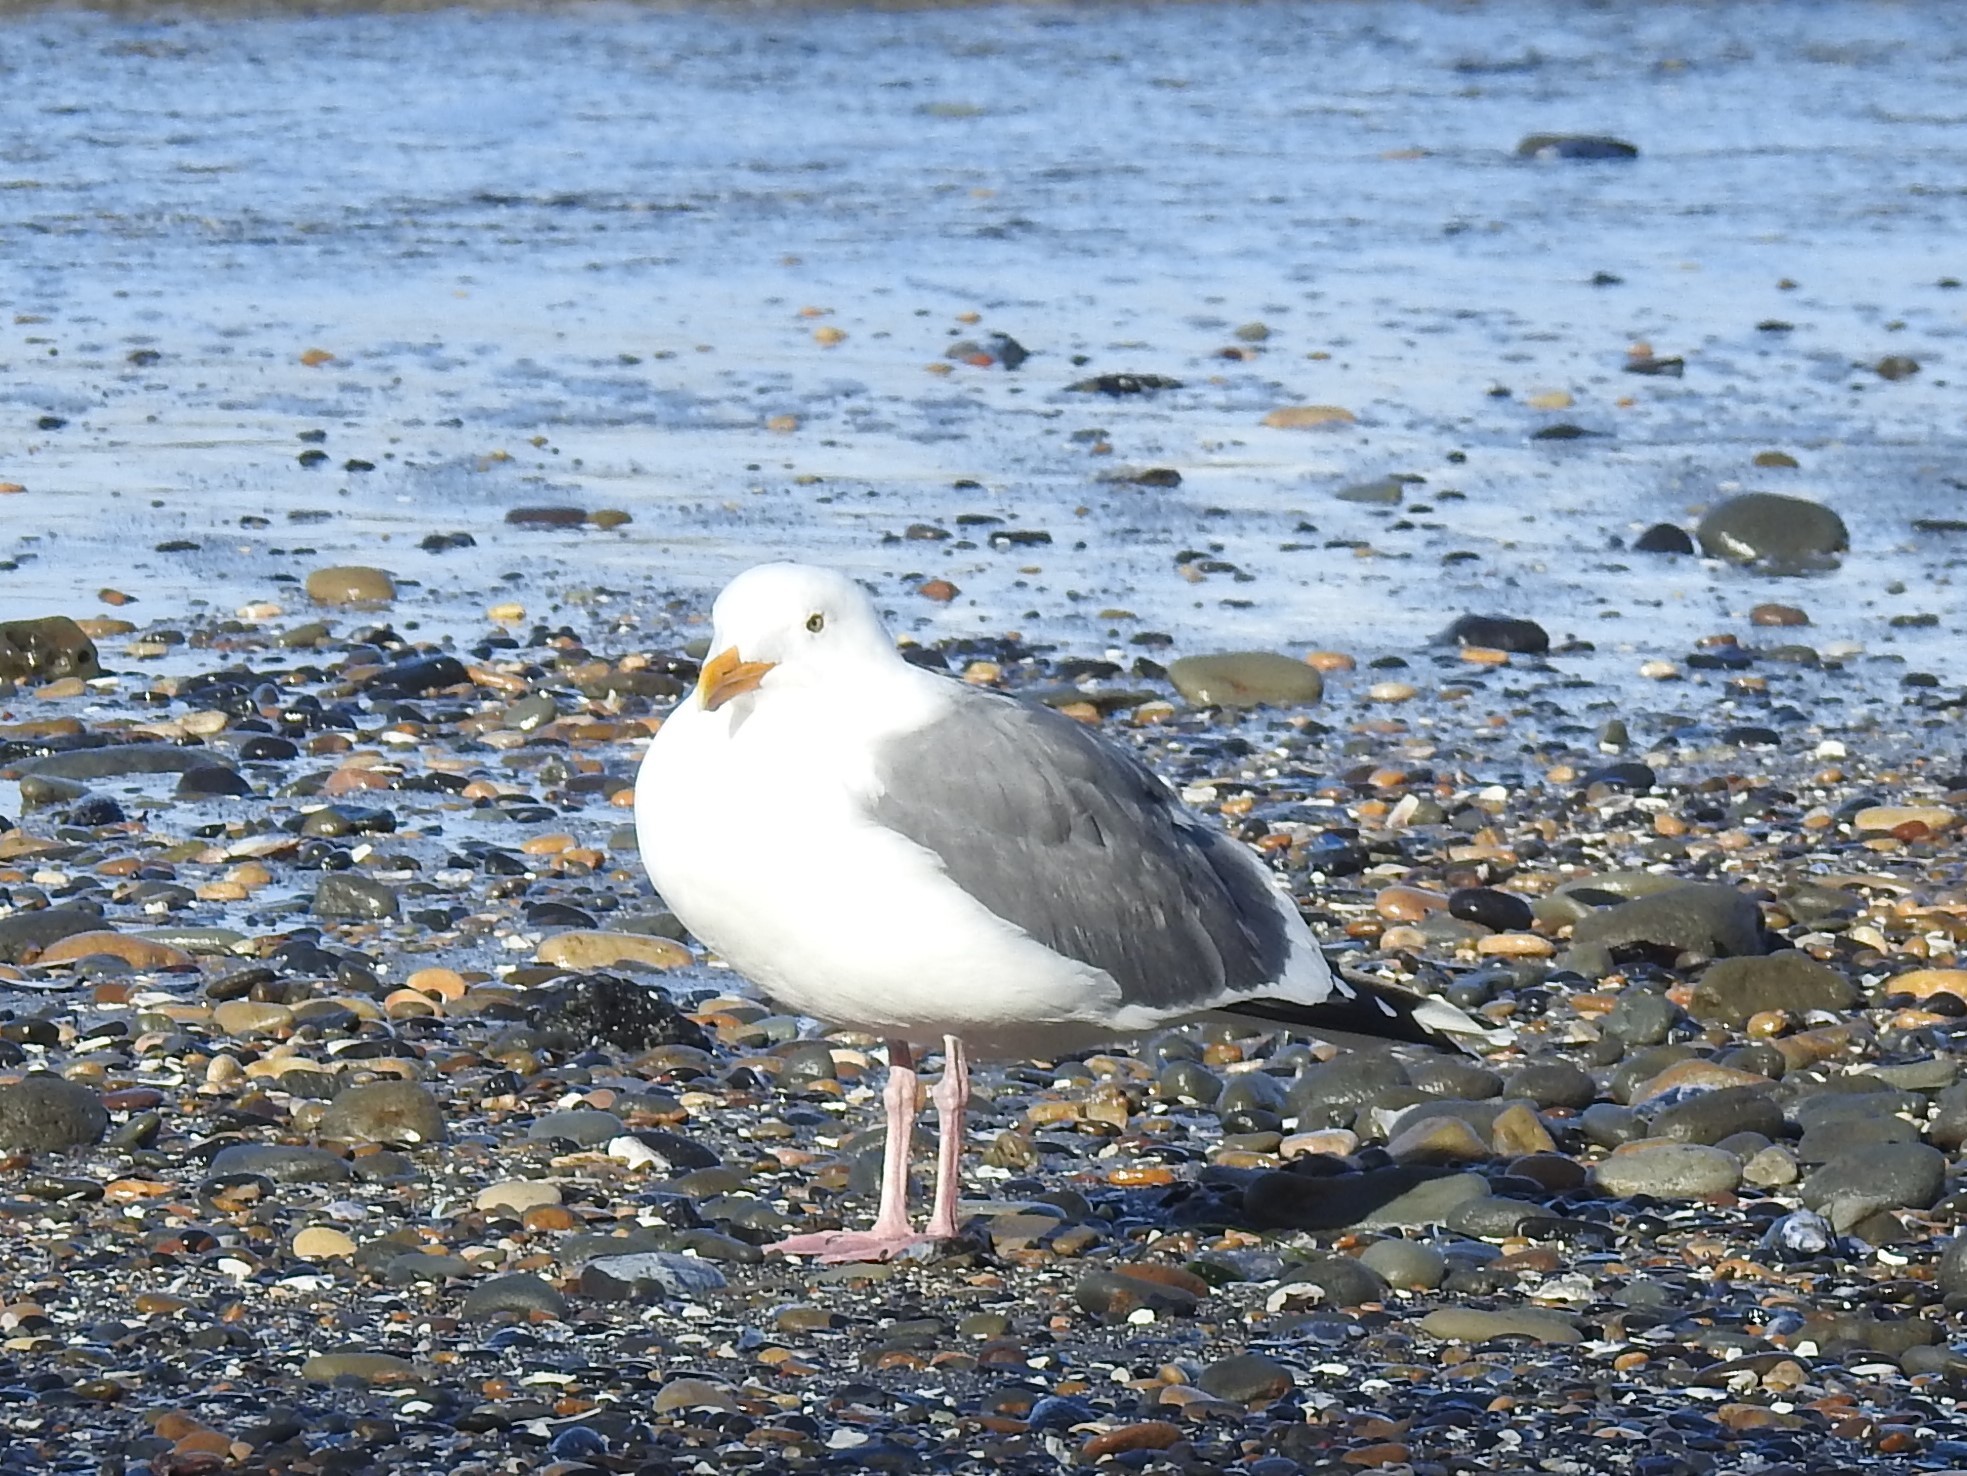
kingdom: Animalia
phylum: Chordata
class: Aves
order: Charadriiformes
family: Laridae
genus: Larus
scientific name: Larus occidentalis
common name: Western gull
